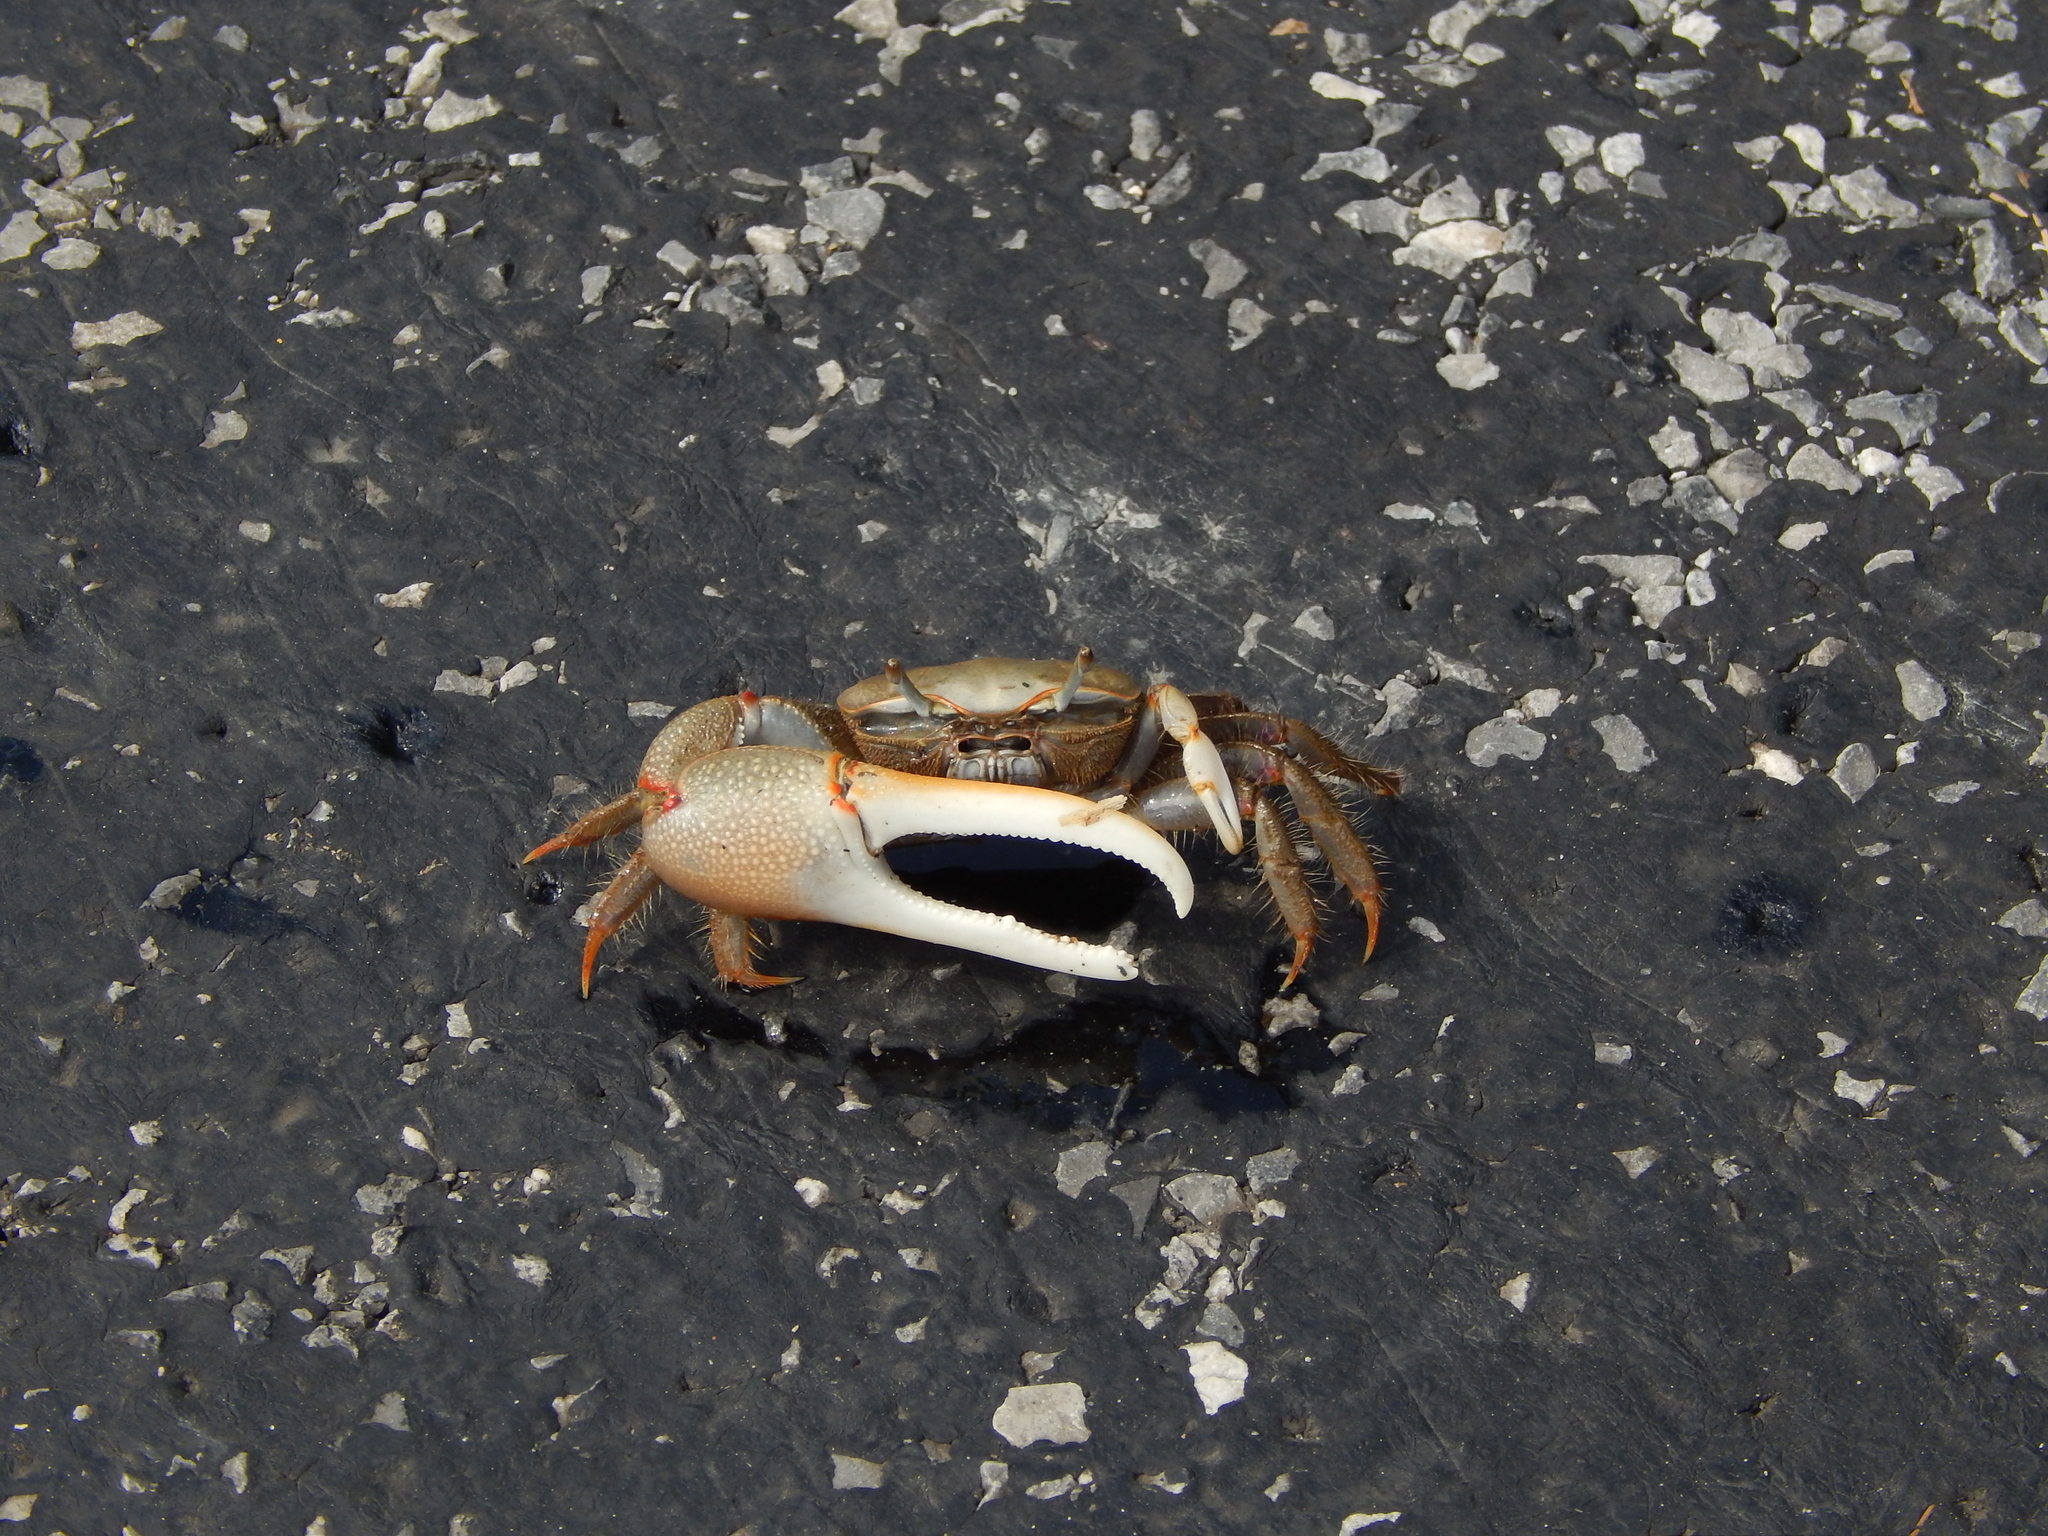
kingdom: Animalia
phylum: Arthropoda
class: Malacostraca
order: Decapoda
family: Ocypodidae
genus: Minuca
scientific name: Minuca minax
